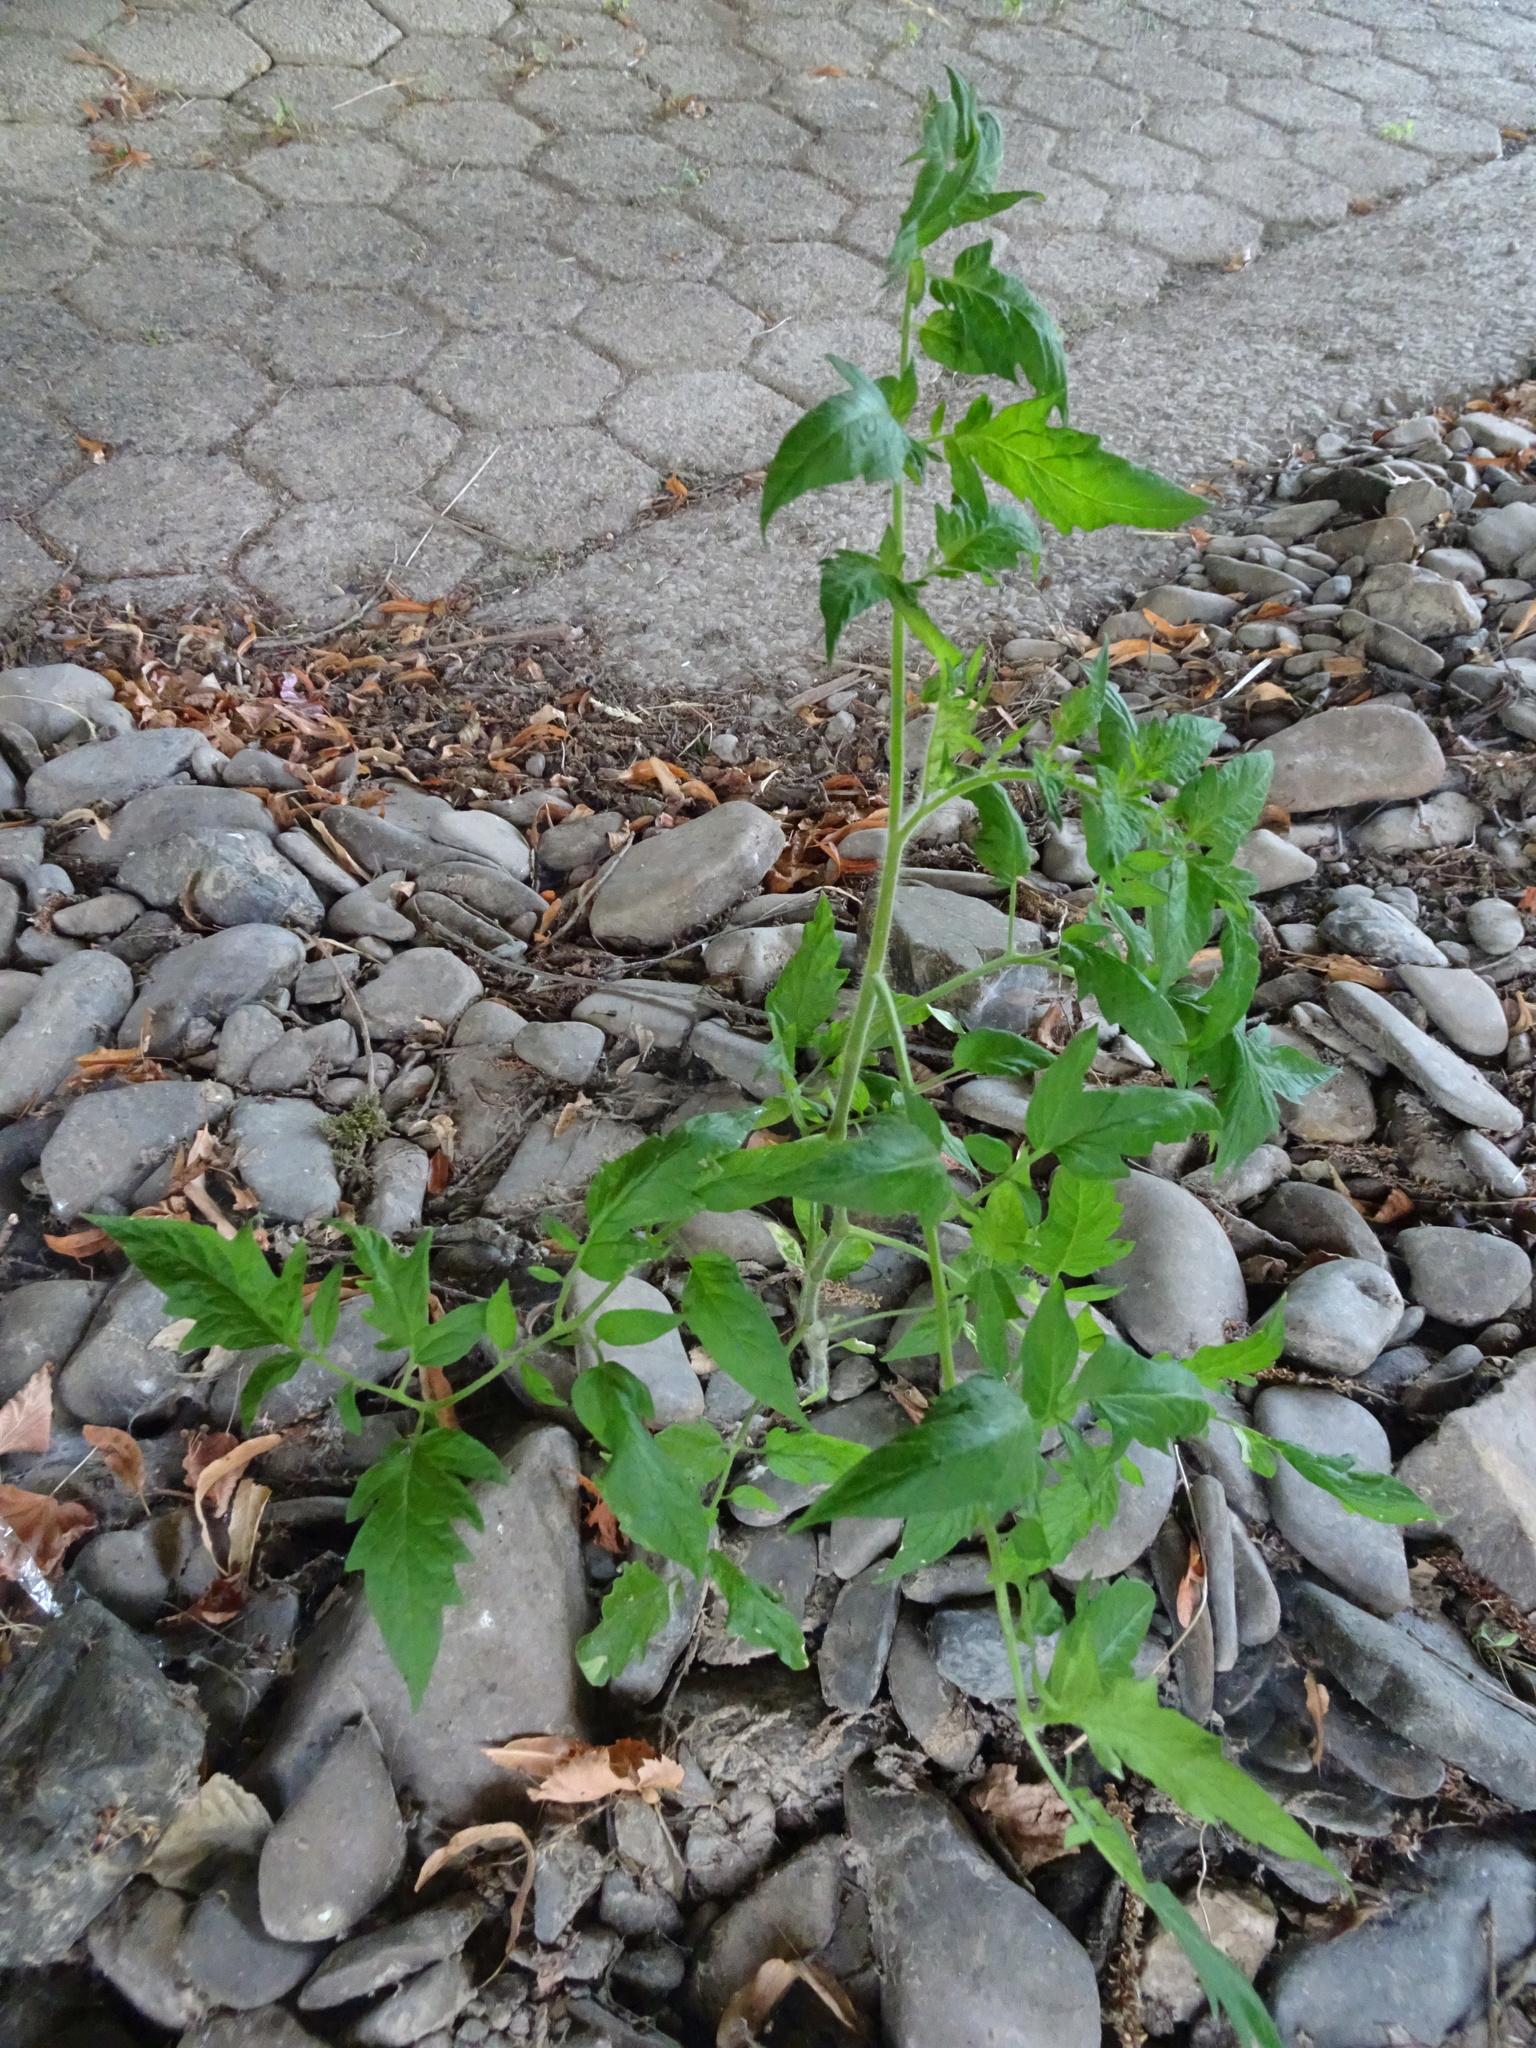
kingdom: Plantae
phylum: Tracheophyta
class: Magnoliopsida
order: Solanales
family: Solanaceae
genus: Solanum
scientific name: Solanum lycopersicum
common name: Garden tomato
